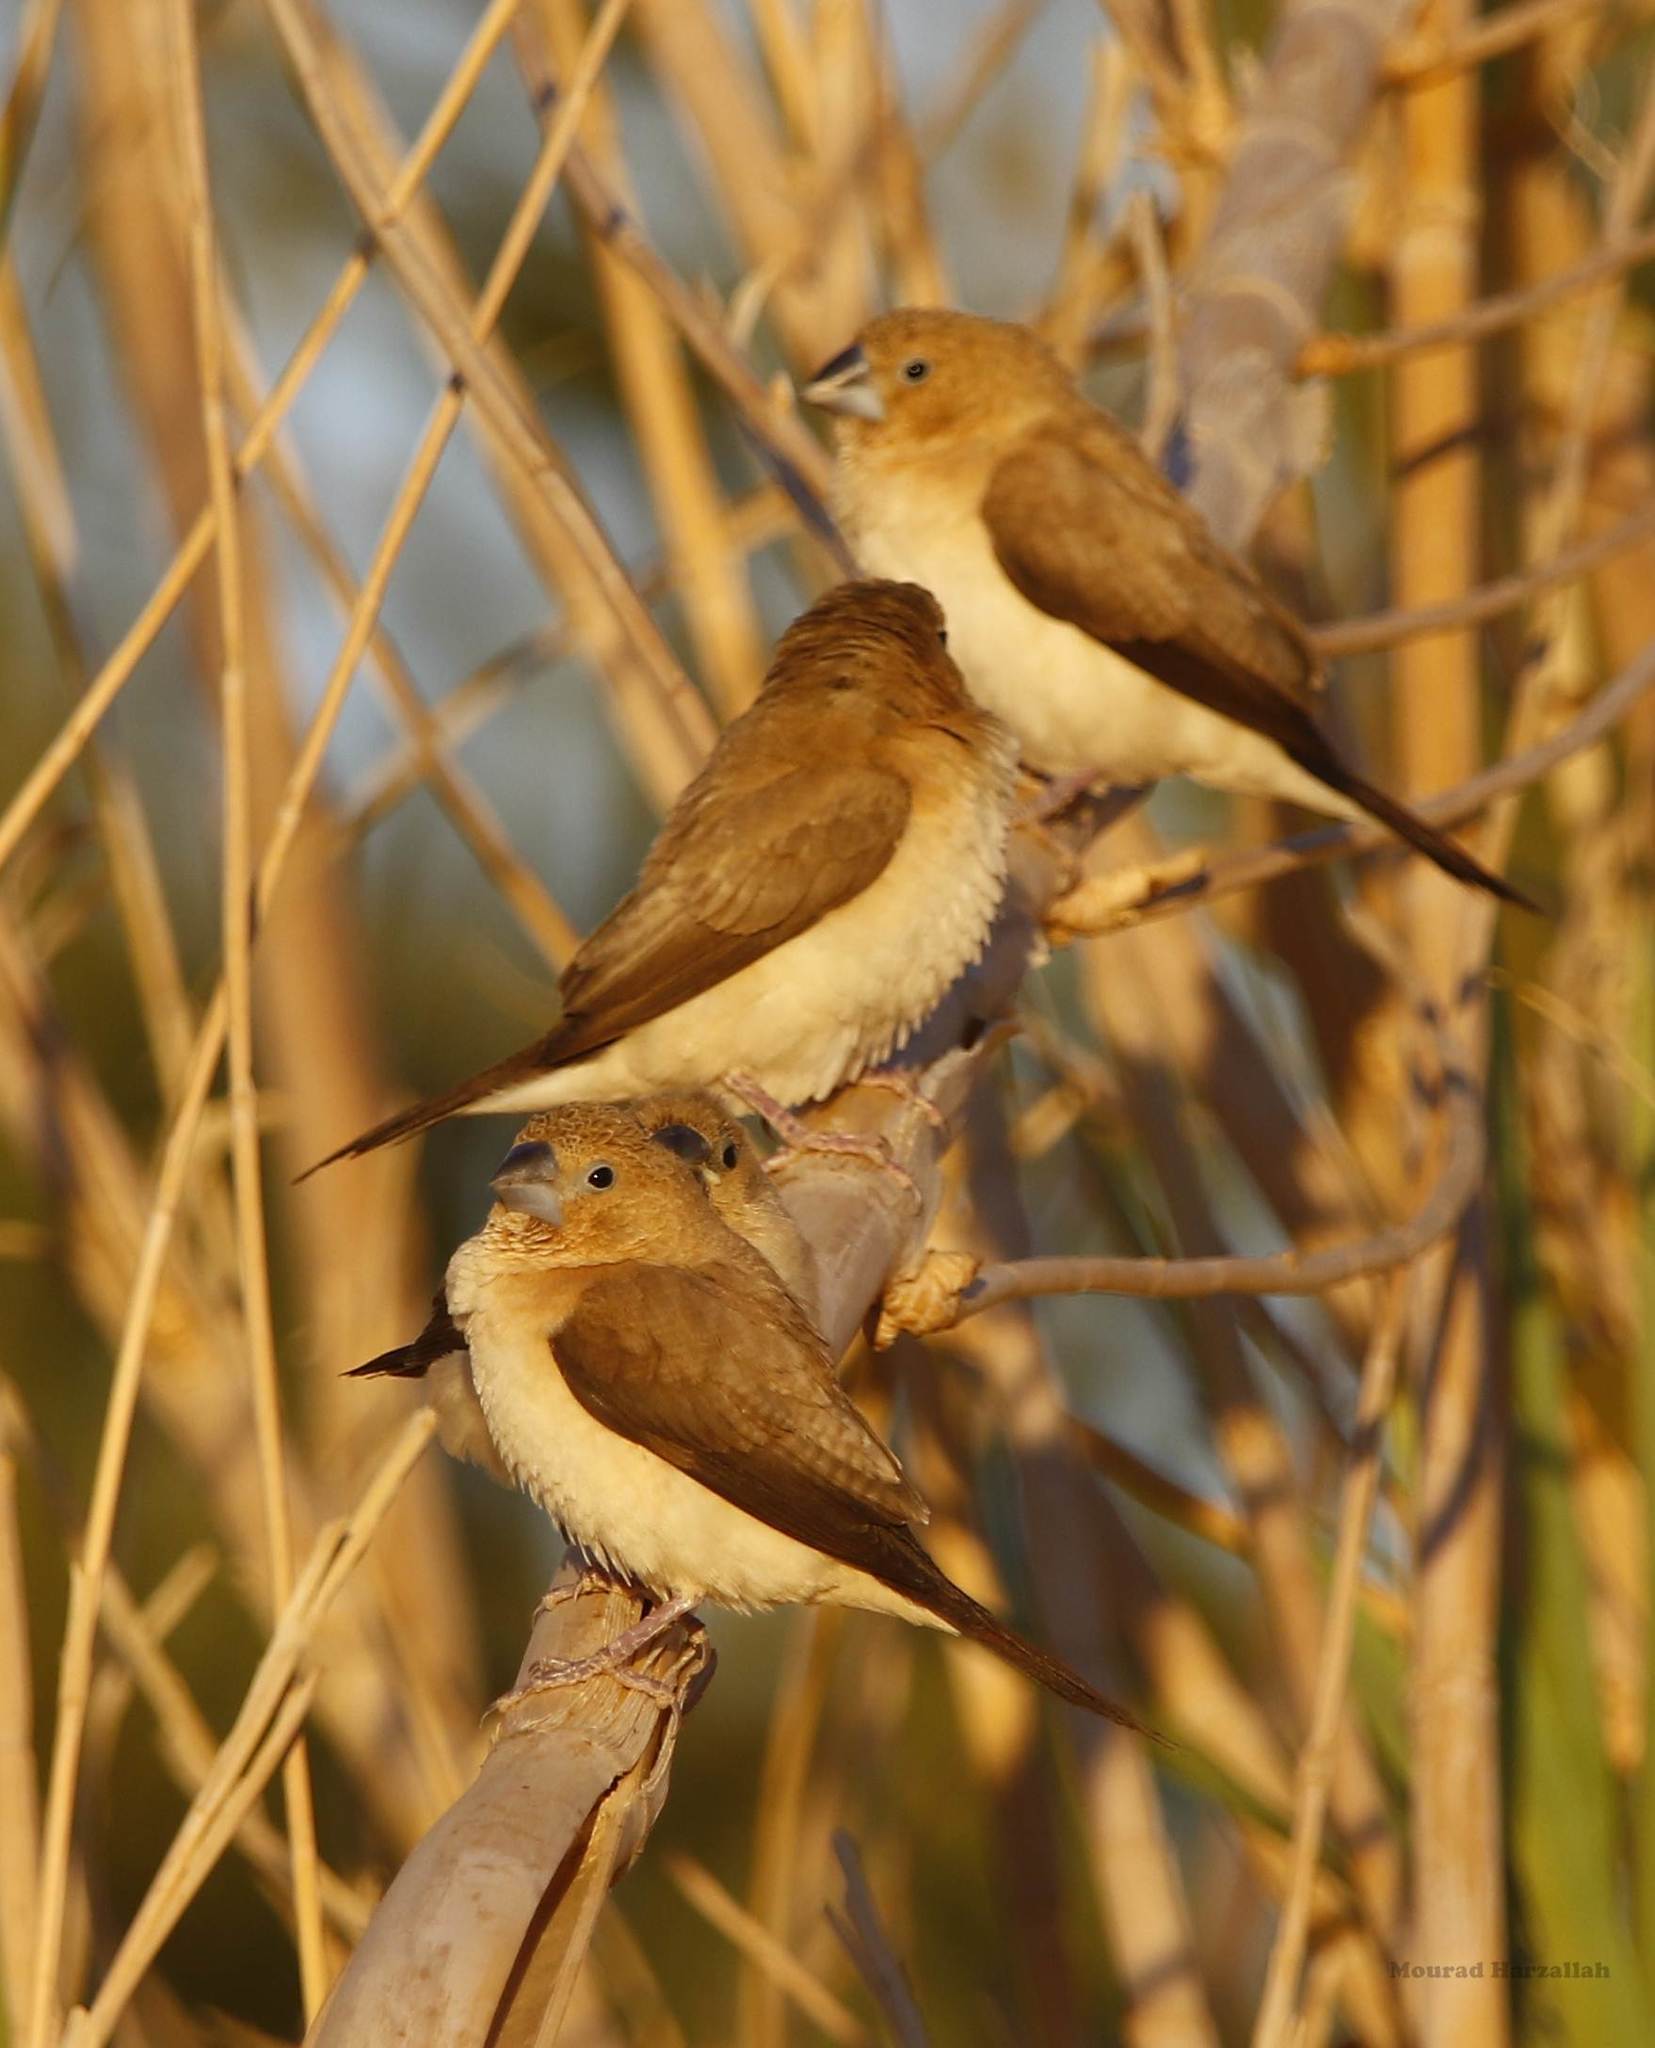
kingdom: Animalia
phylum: Chordata
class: Aves
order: Passeriformes
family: Estrildidae
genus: Euodice
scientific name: Euodice cantans
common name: African silverbill
